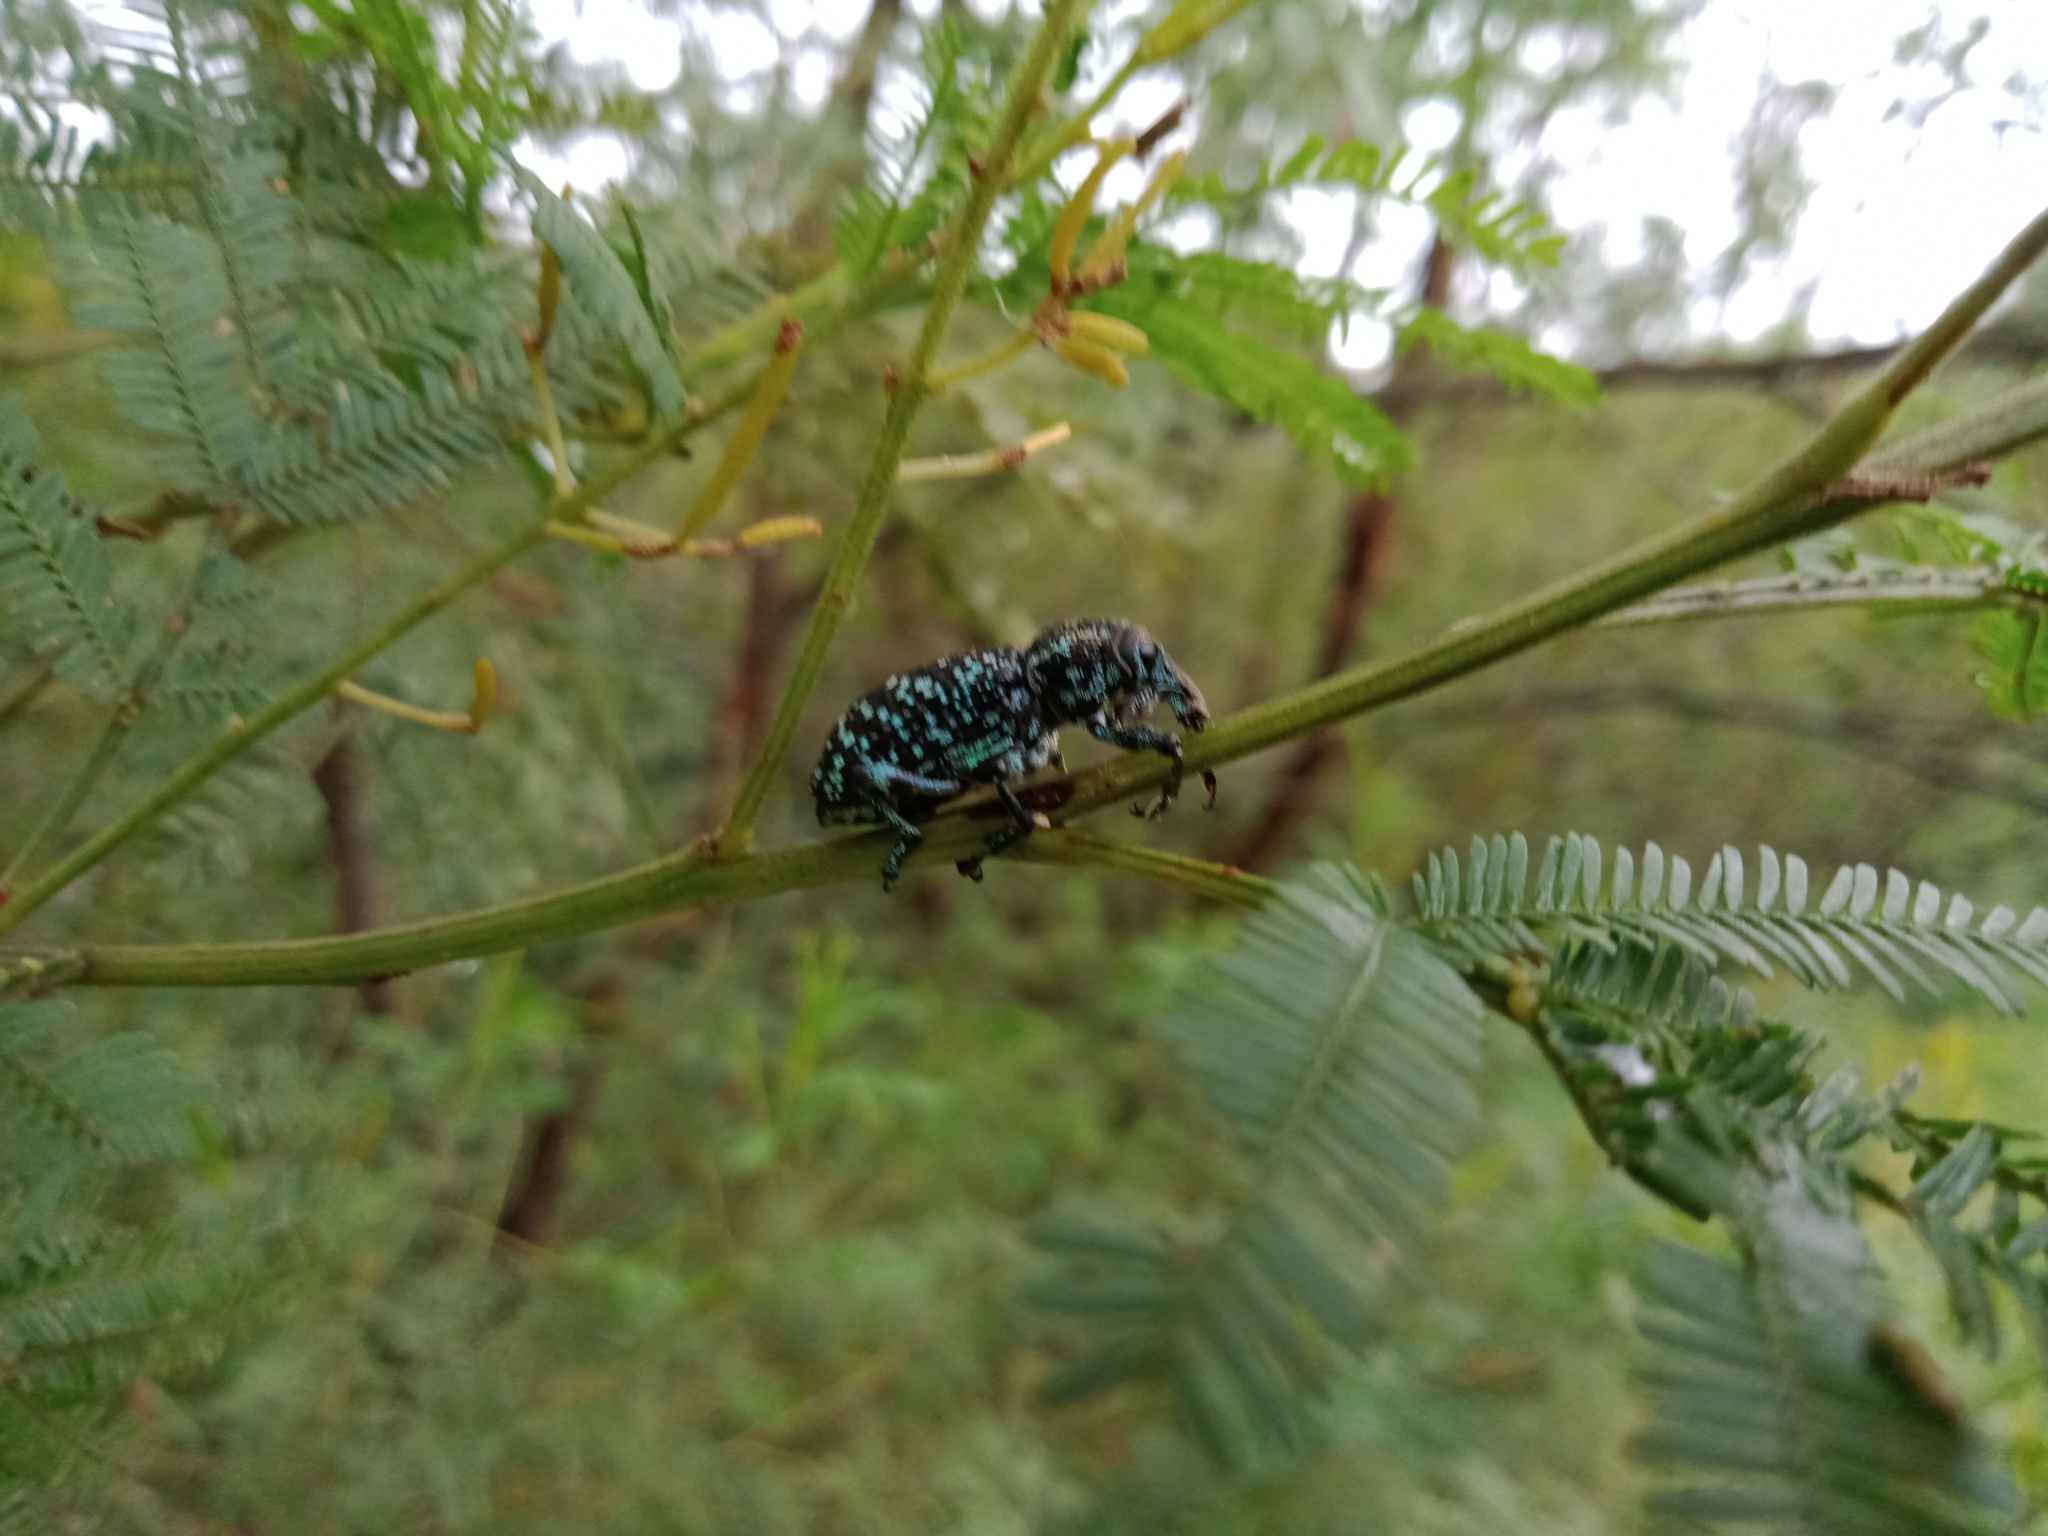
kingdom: Animalia
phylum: Arthropoda
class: Insecta
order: Coleoptera
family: Curculionidae
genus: Chrysolopus
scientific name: Chrysolopus spectabilis
